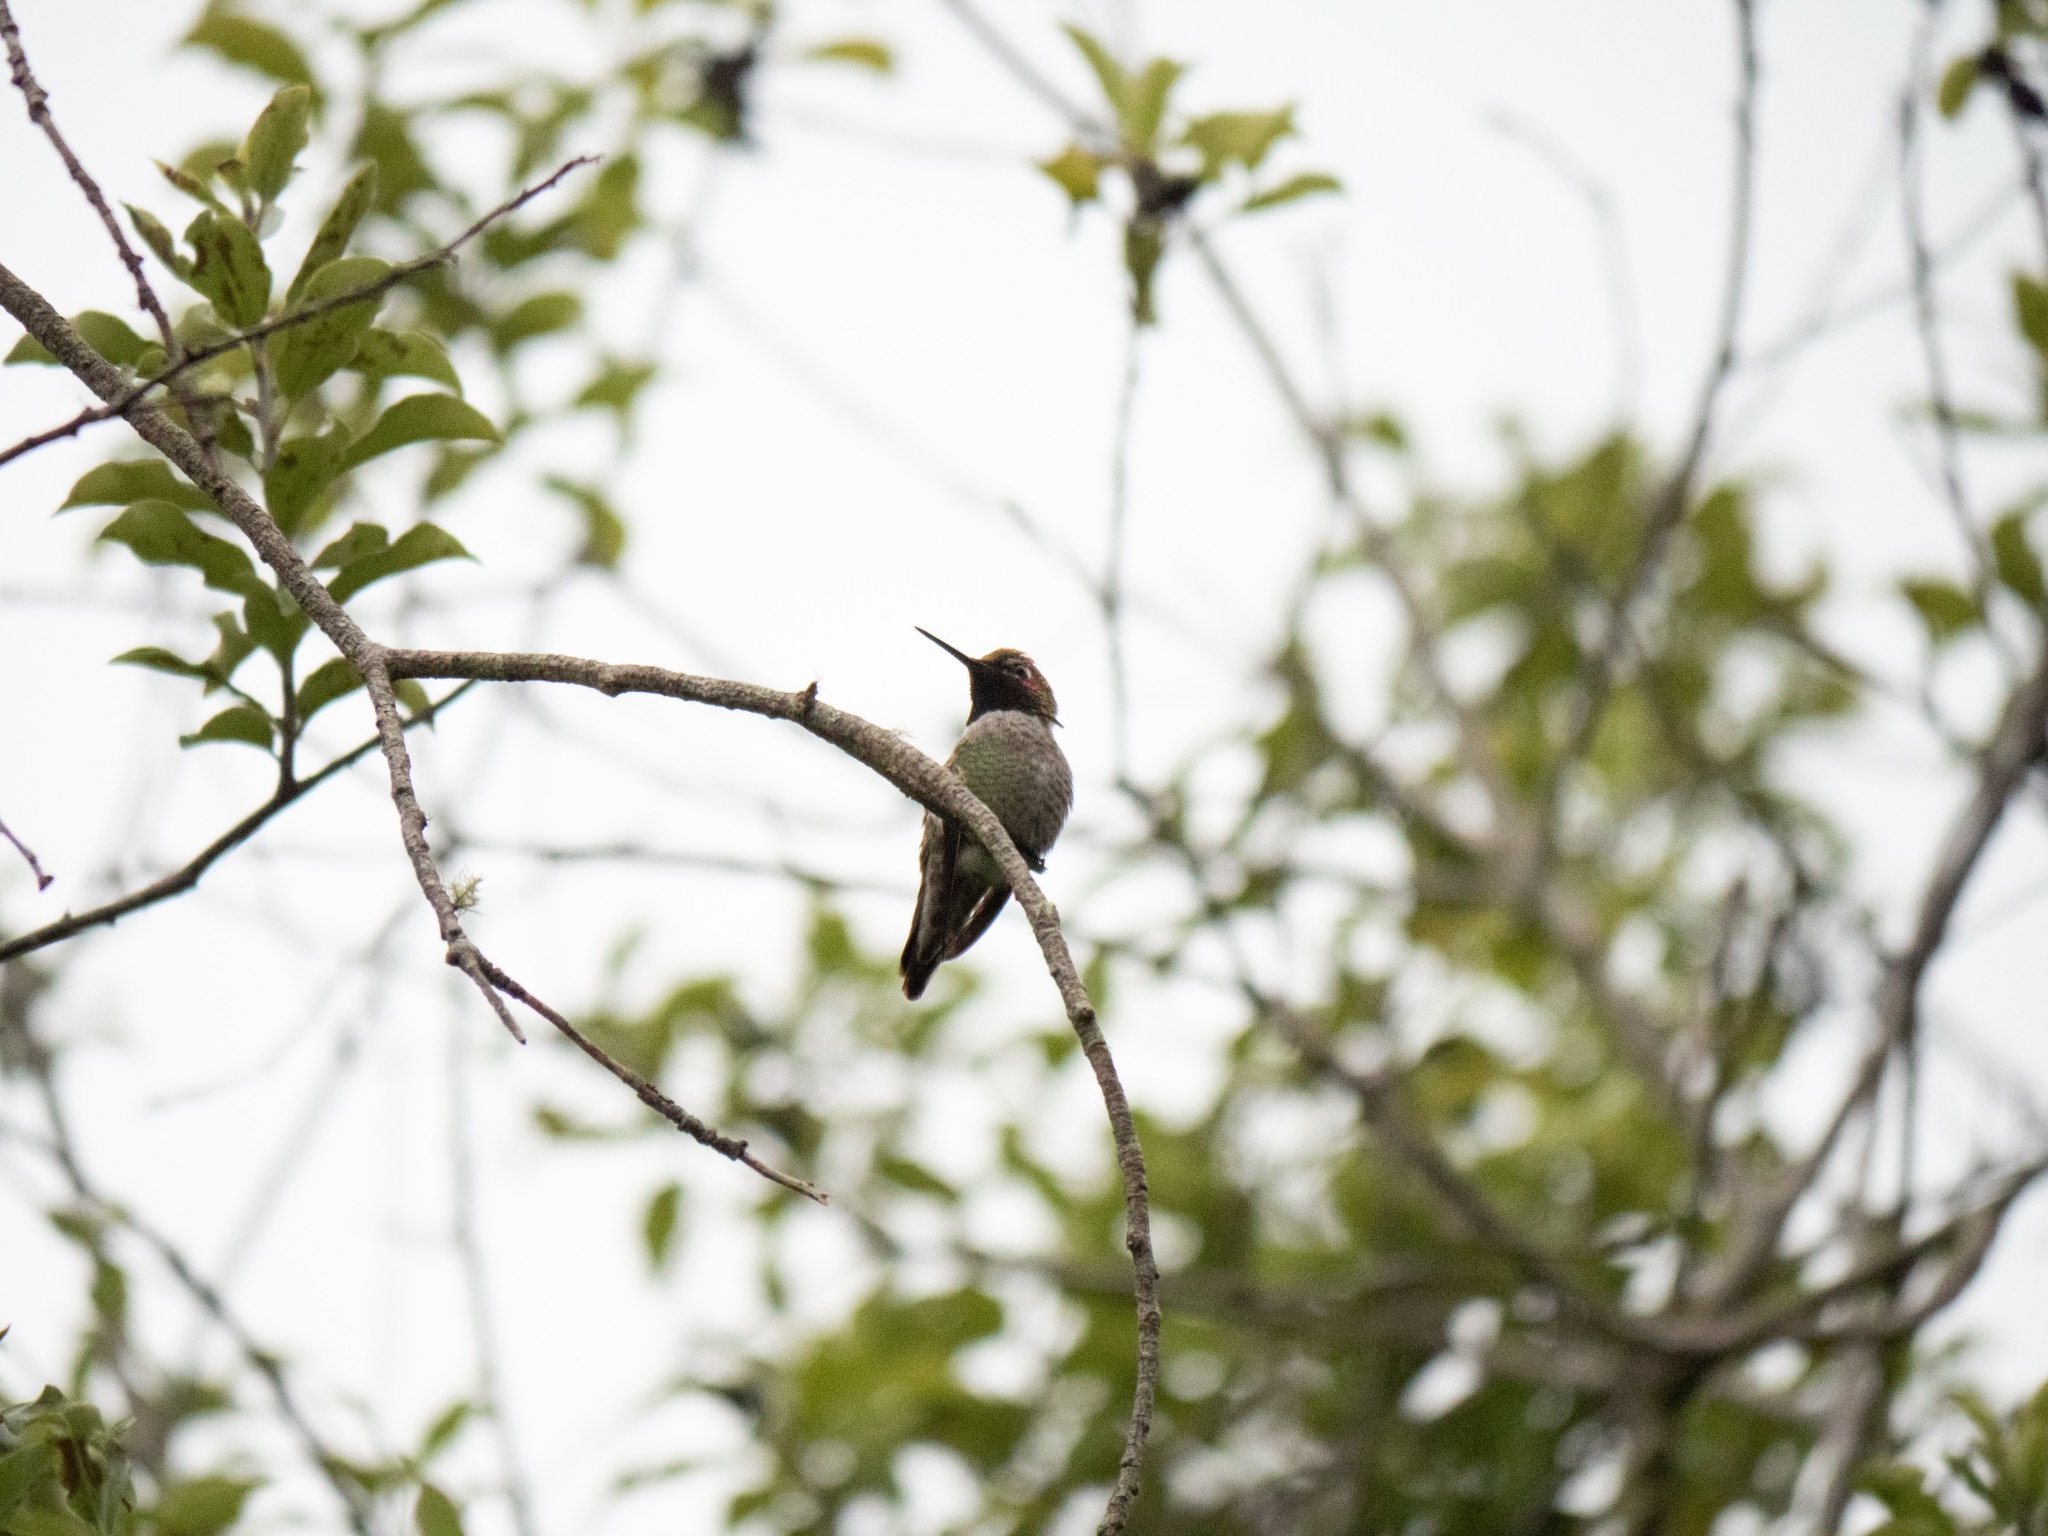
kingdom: Animalia
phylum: Chordata
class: Aves
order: Apodiformes
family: Trochilidae
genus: Calypte
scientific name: Calypte anna
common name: Anna's hummingbird
